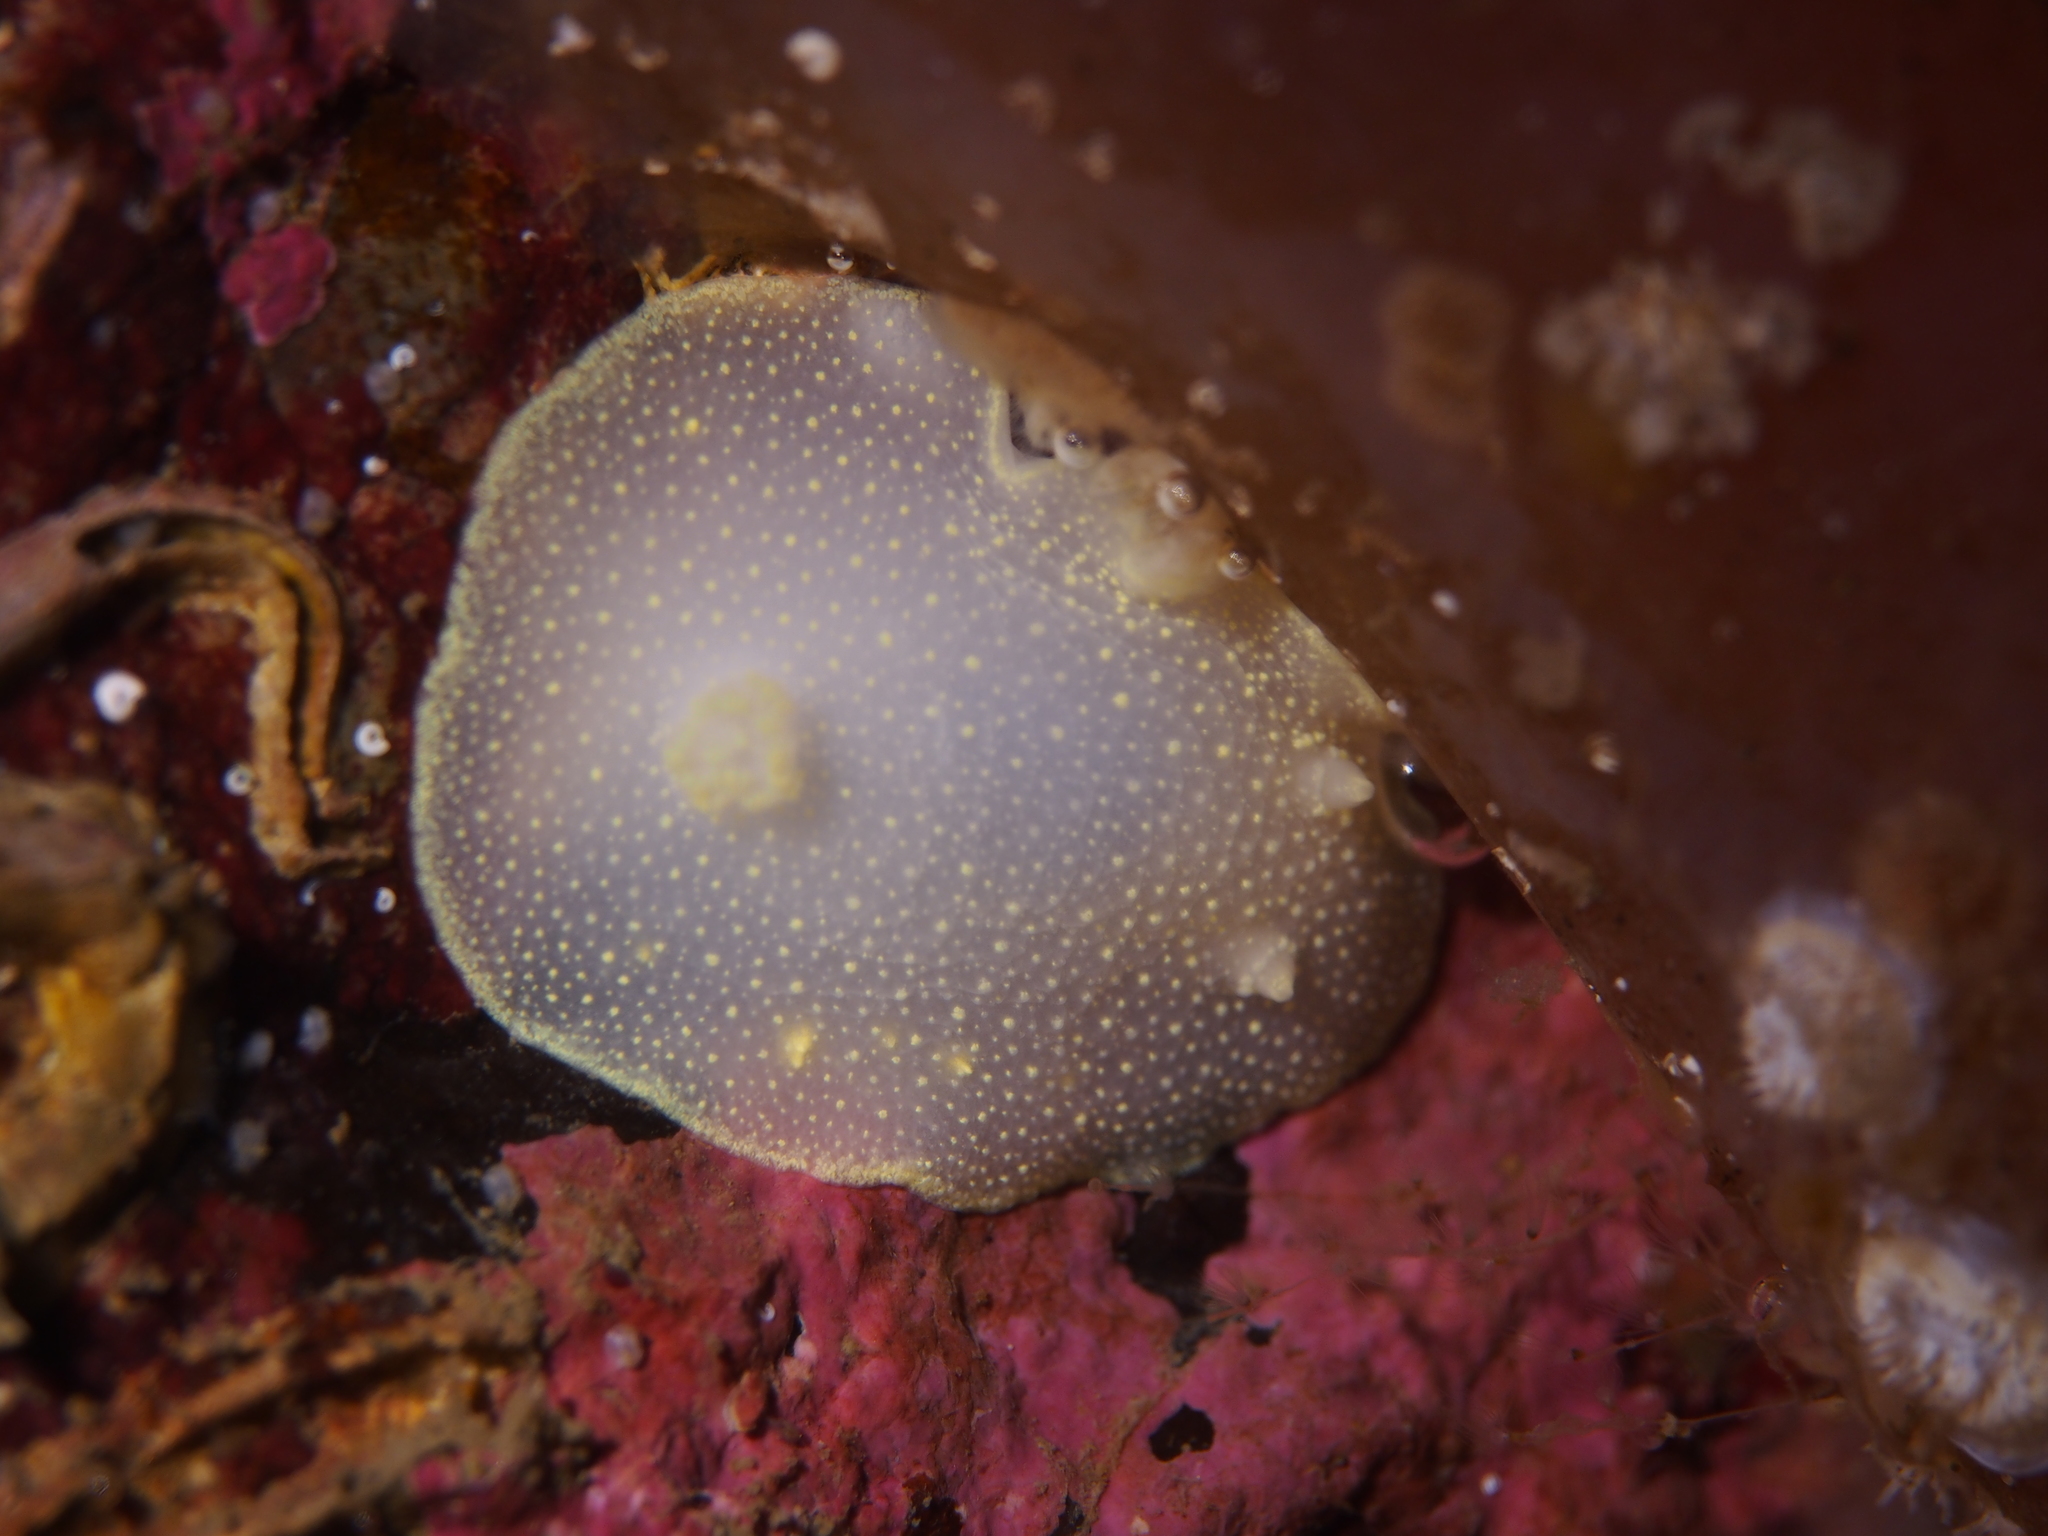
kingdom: Animalia
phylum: Mollusca
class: Gastropoda
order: Nudibranchia
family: Cadlinidae
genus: Cadlina
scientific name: Cadlina laevis
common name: White atlantic cadlina
